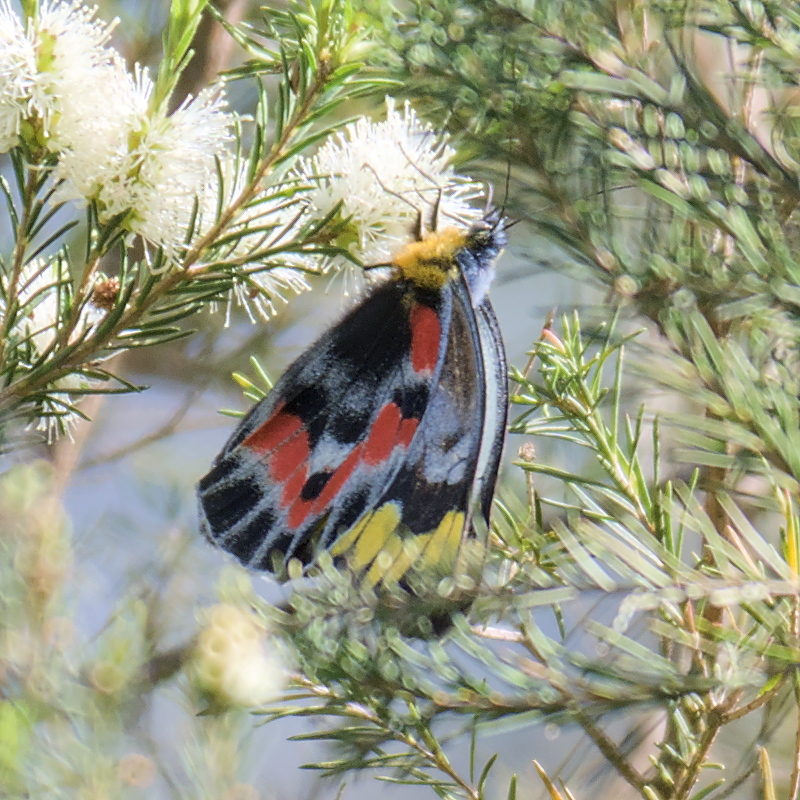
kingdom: Animalia
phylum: Arthropoda
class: Insecta
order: Lepidoptera
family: Pieridae
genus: Delias
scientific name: Delias harpalyce
